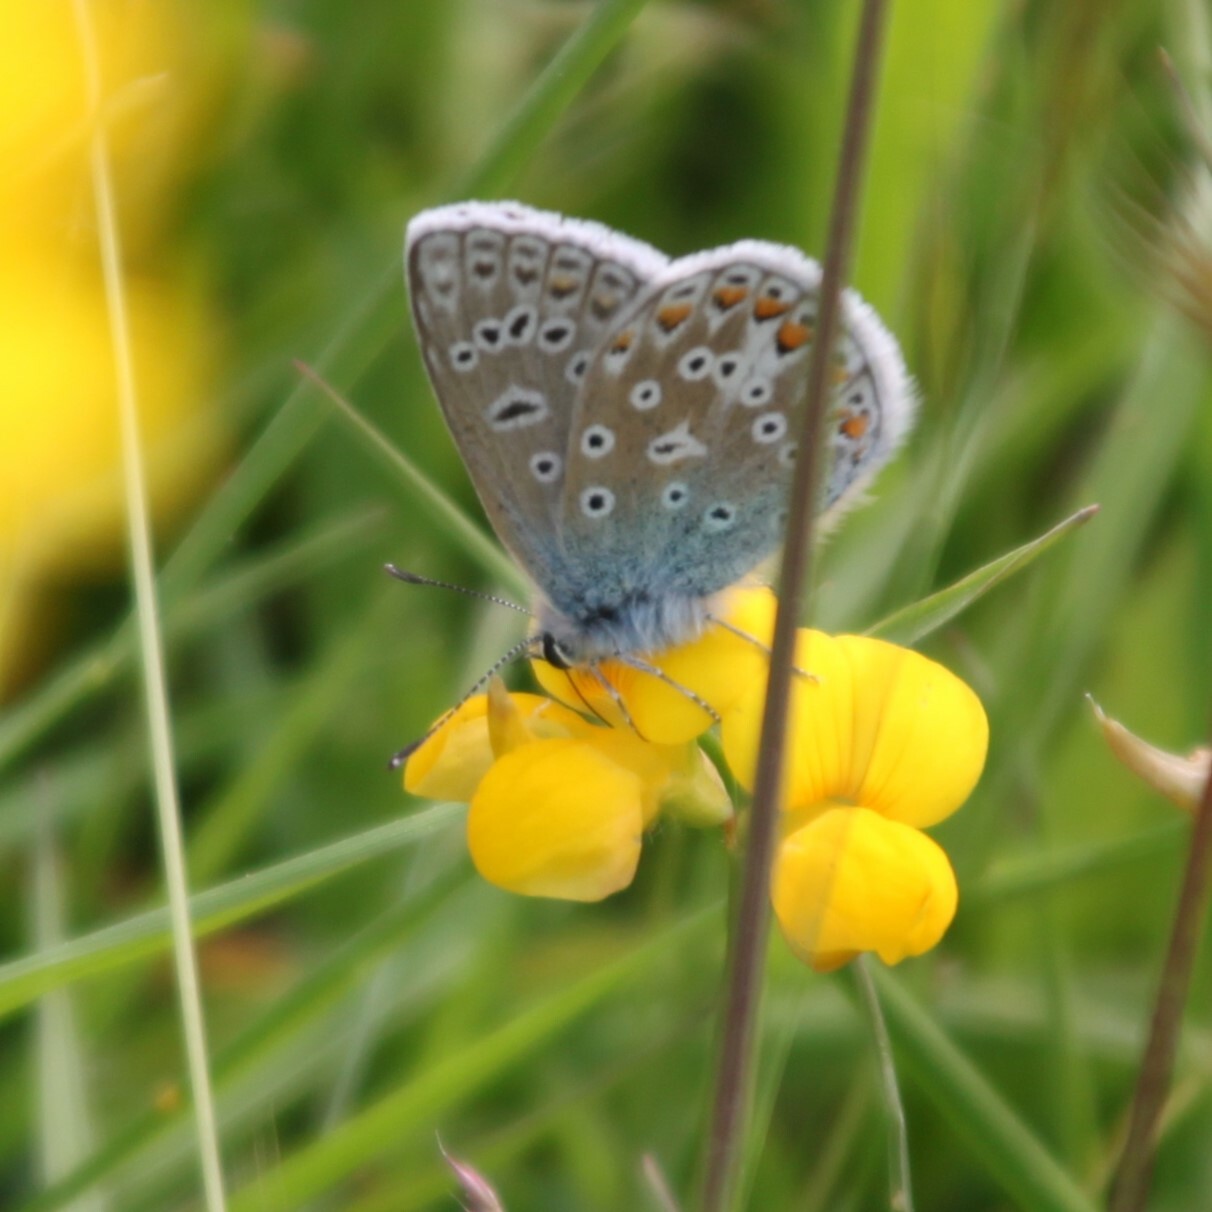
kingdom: Animalia
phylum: Arthropoda
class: Insecta
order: Lepidoptera
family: Lycaenidae
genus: Polyommatus
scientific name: Polyommatus icarus
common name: Common blue
